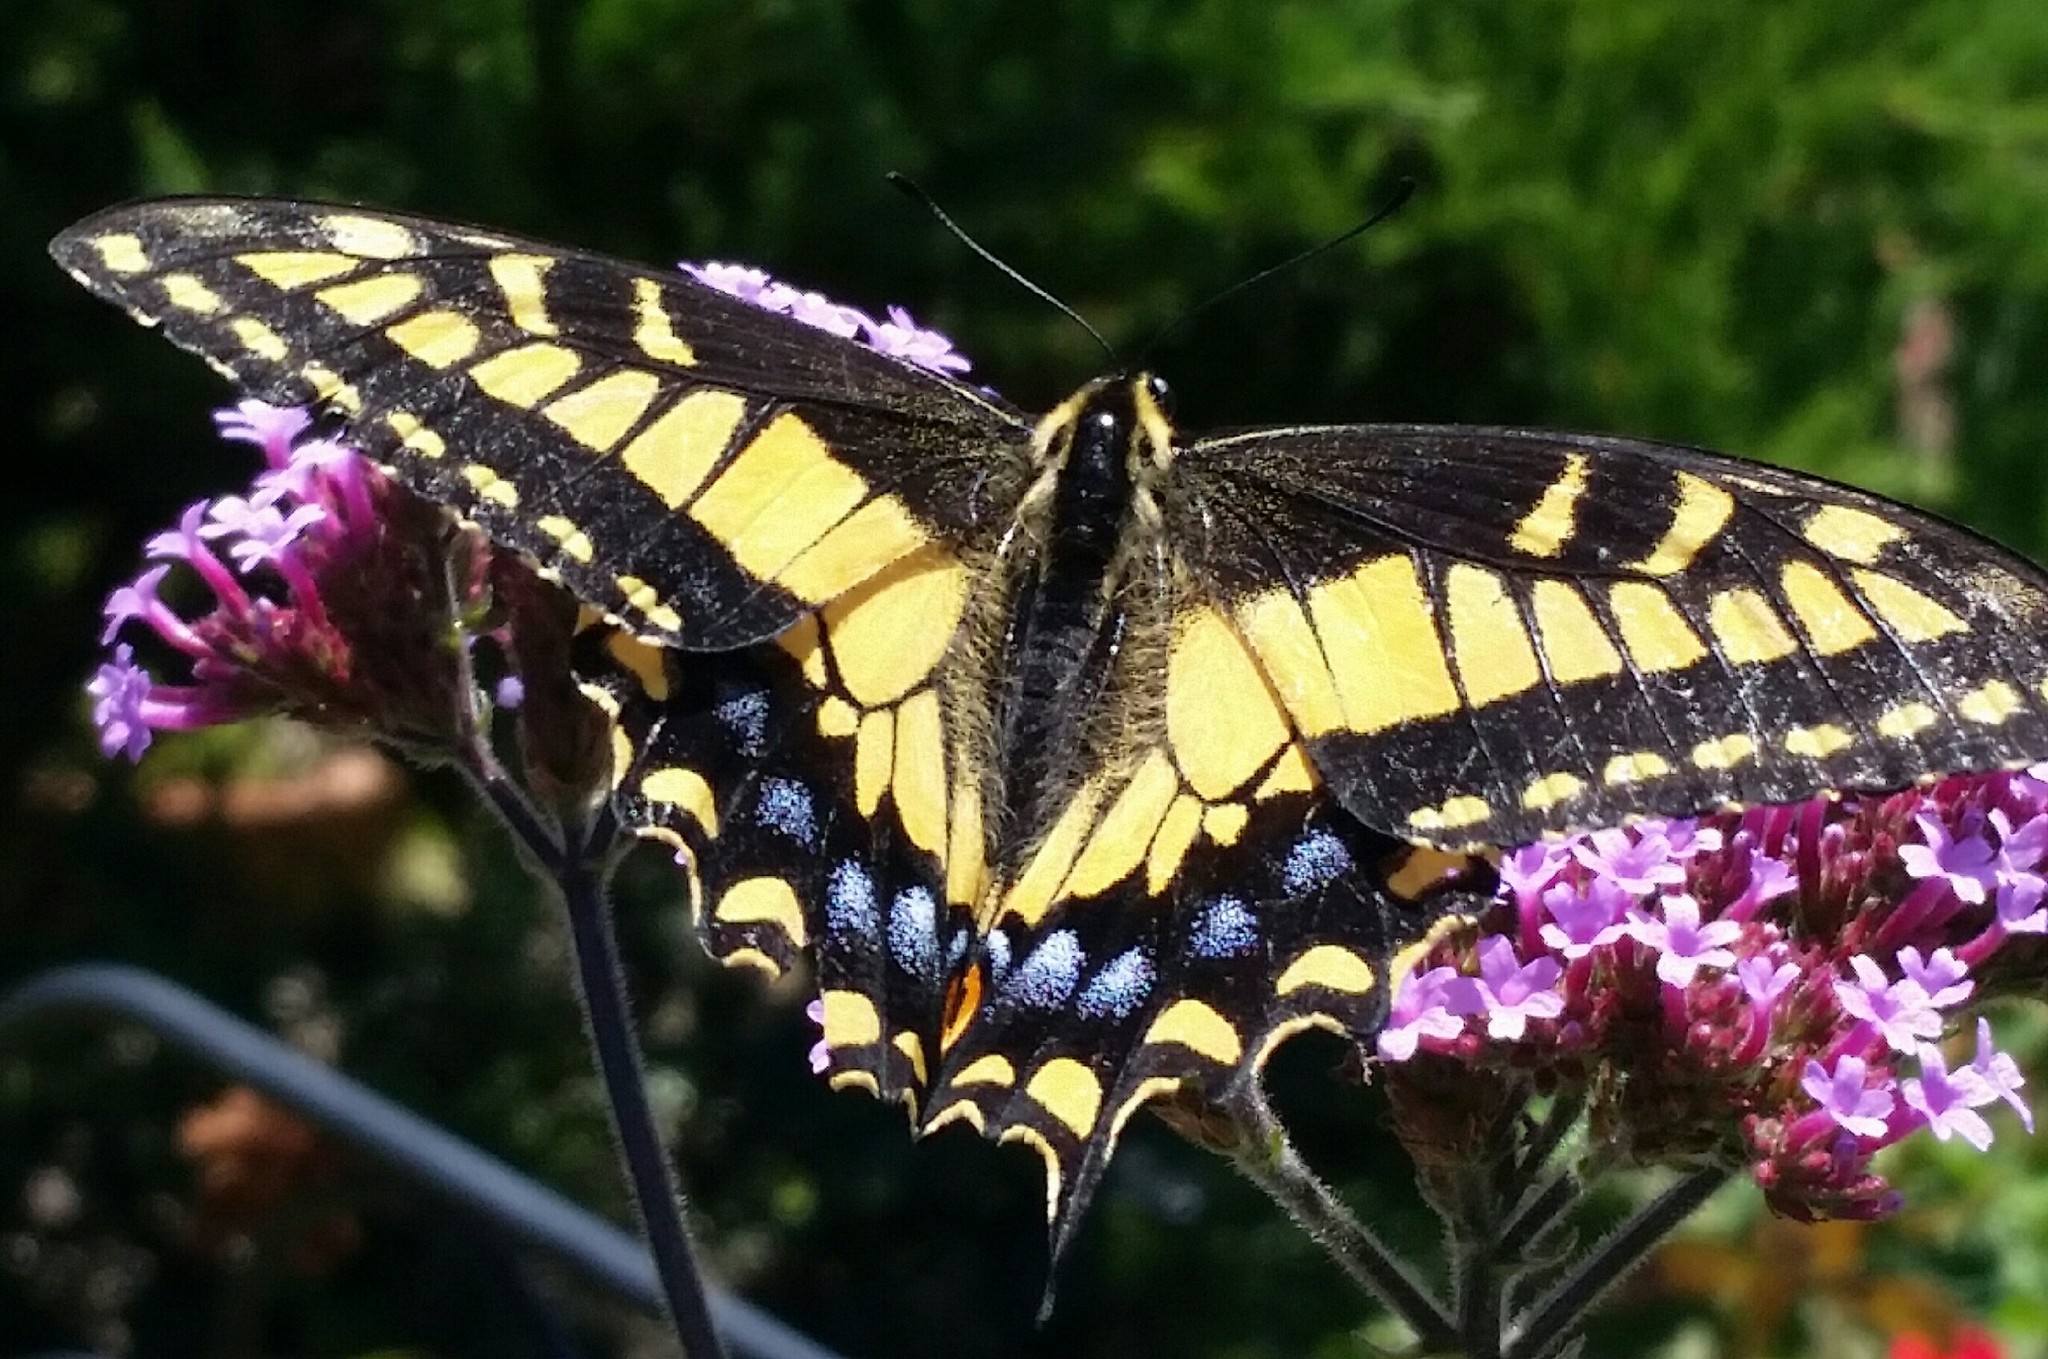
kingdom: Animalia
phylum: Arthropoda
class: Insecta
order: Lepidoptera
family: Papilionidae
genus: Papilio
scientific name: Papilio zelicaon
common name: Anise swallowtail
